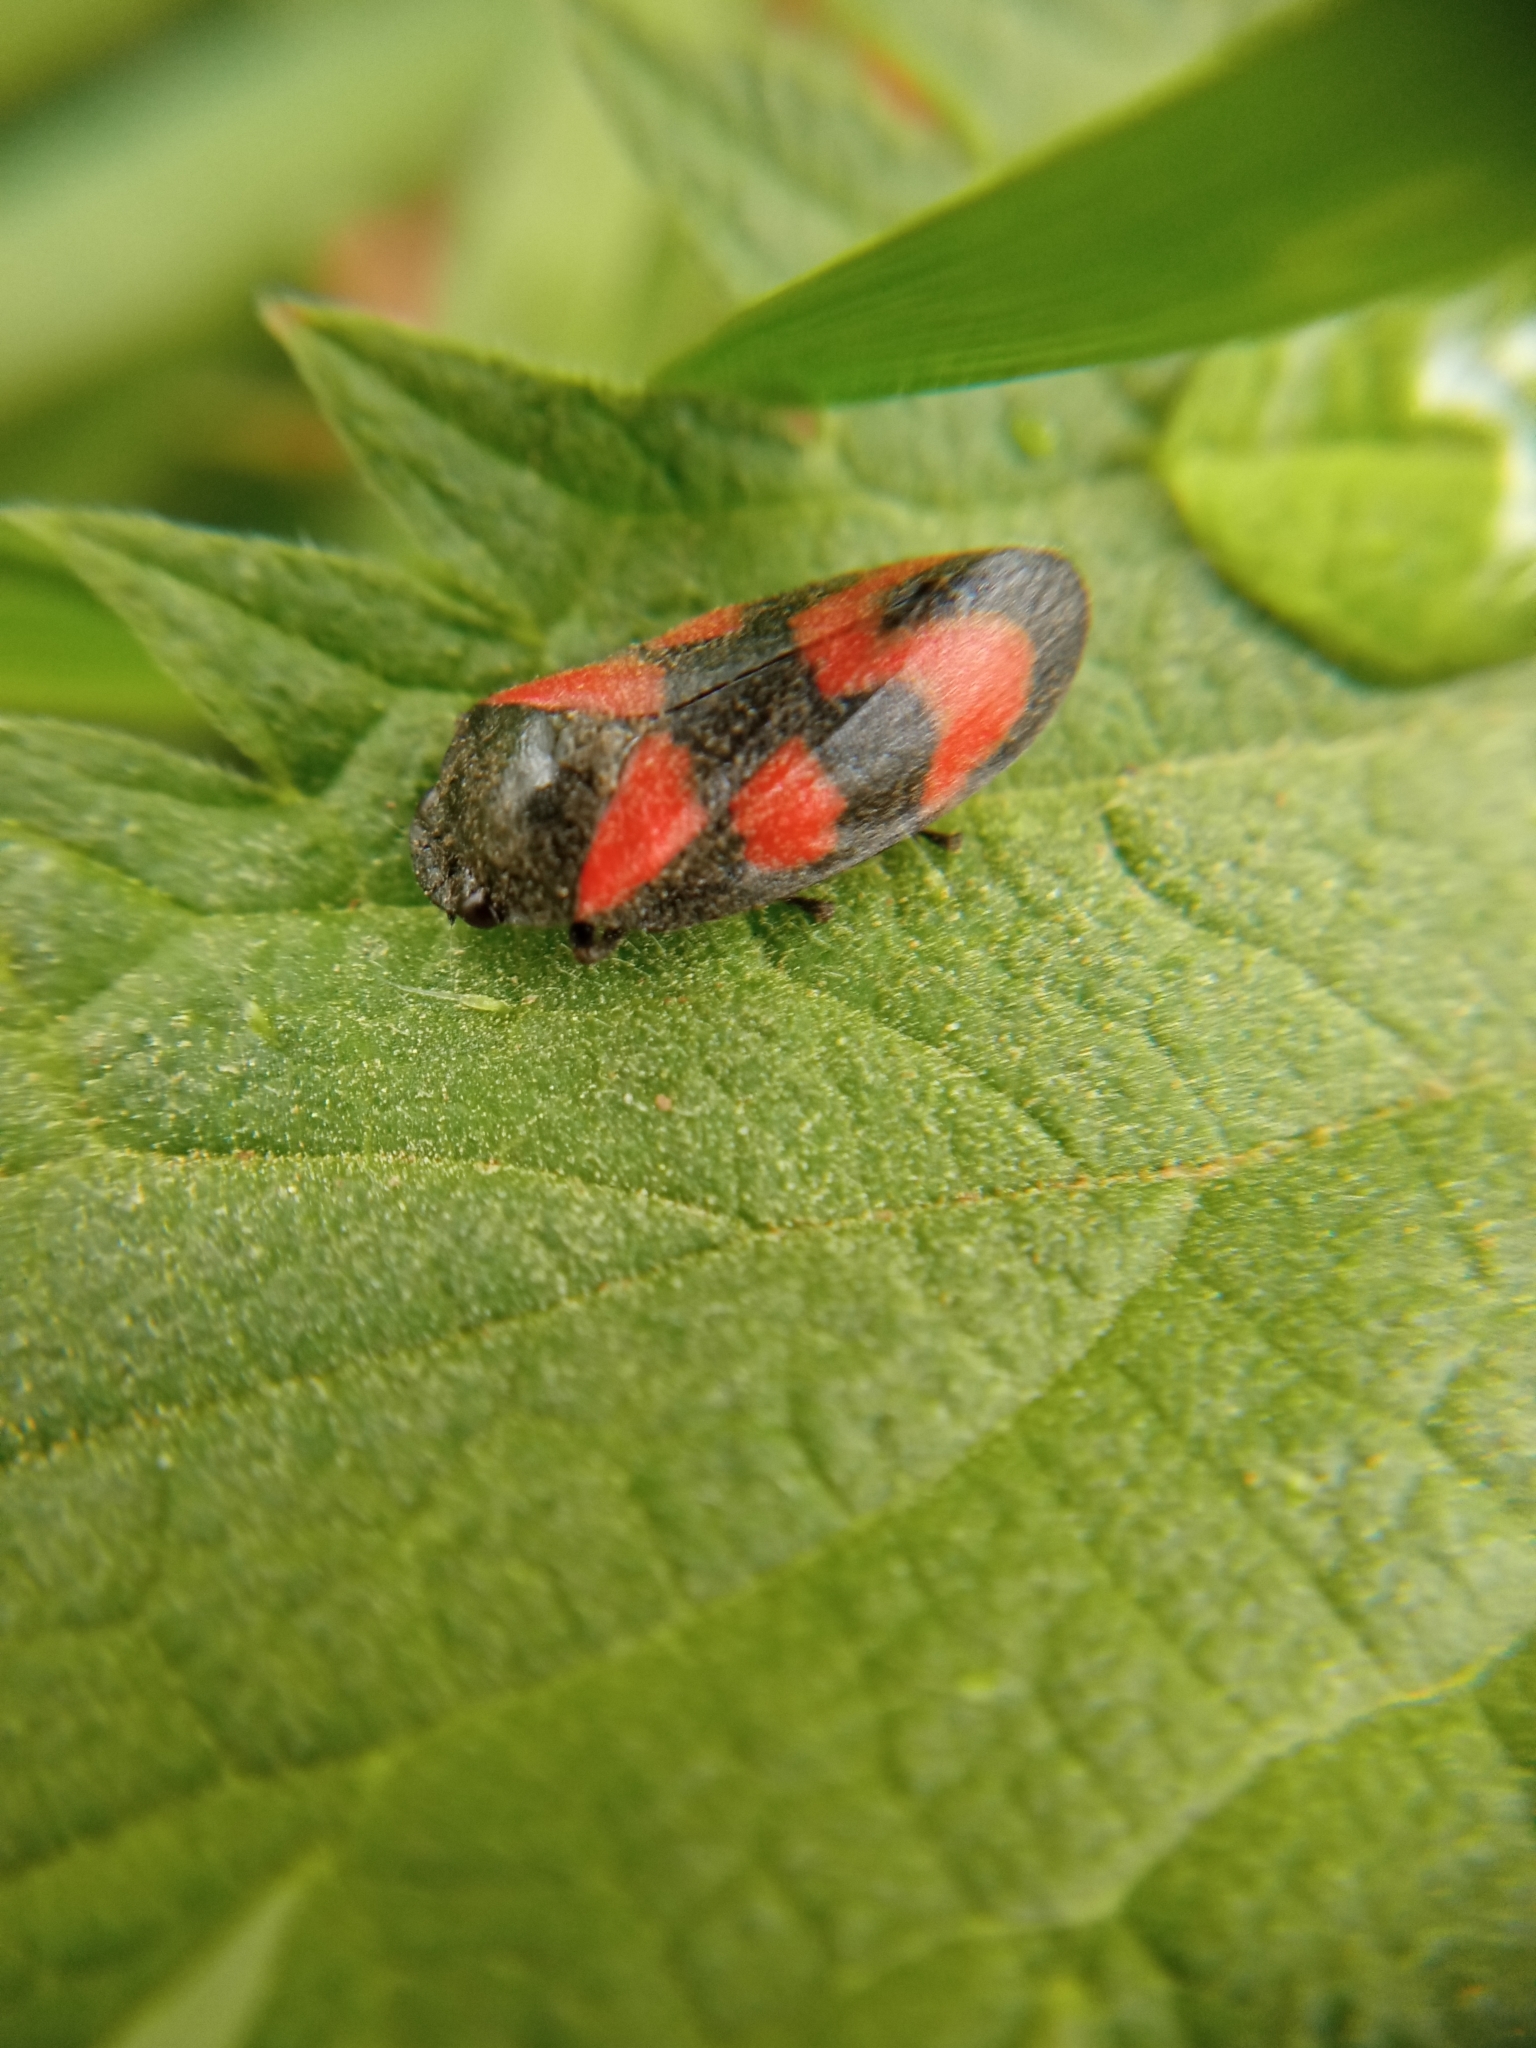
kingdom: Animalia
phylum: Arthropoda
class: Insecta
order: Hemiptera
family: Cercopidae
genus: Cercopis
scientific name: Cercopis vulnerata
